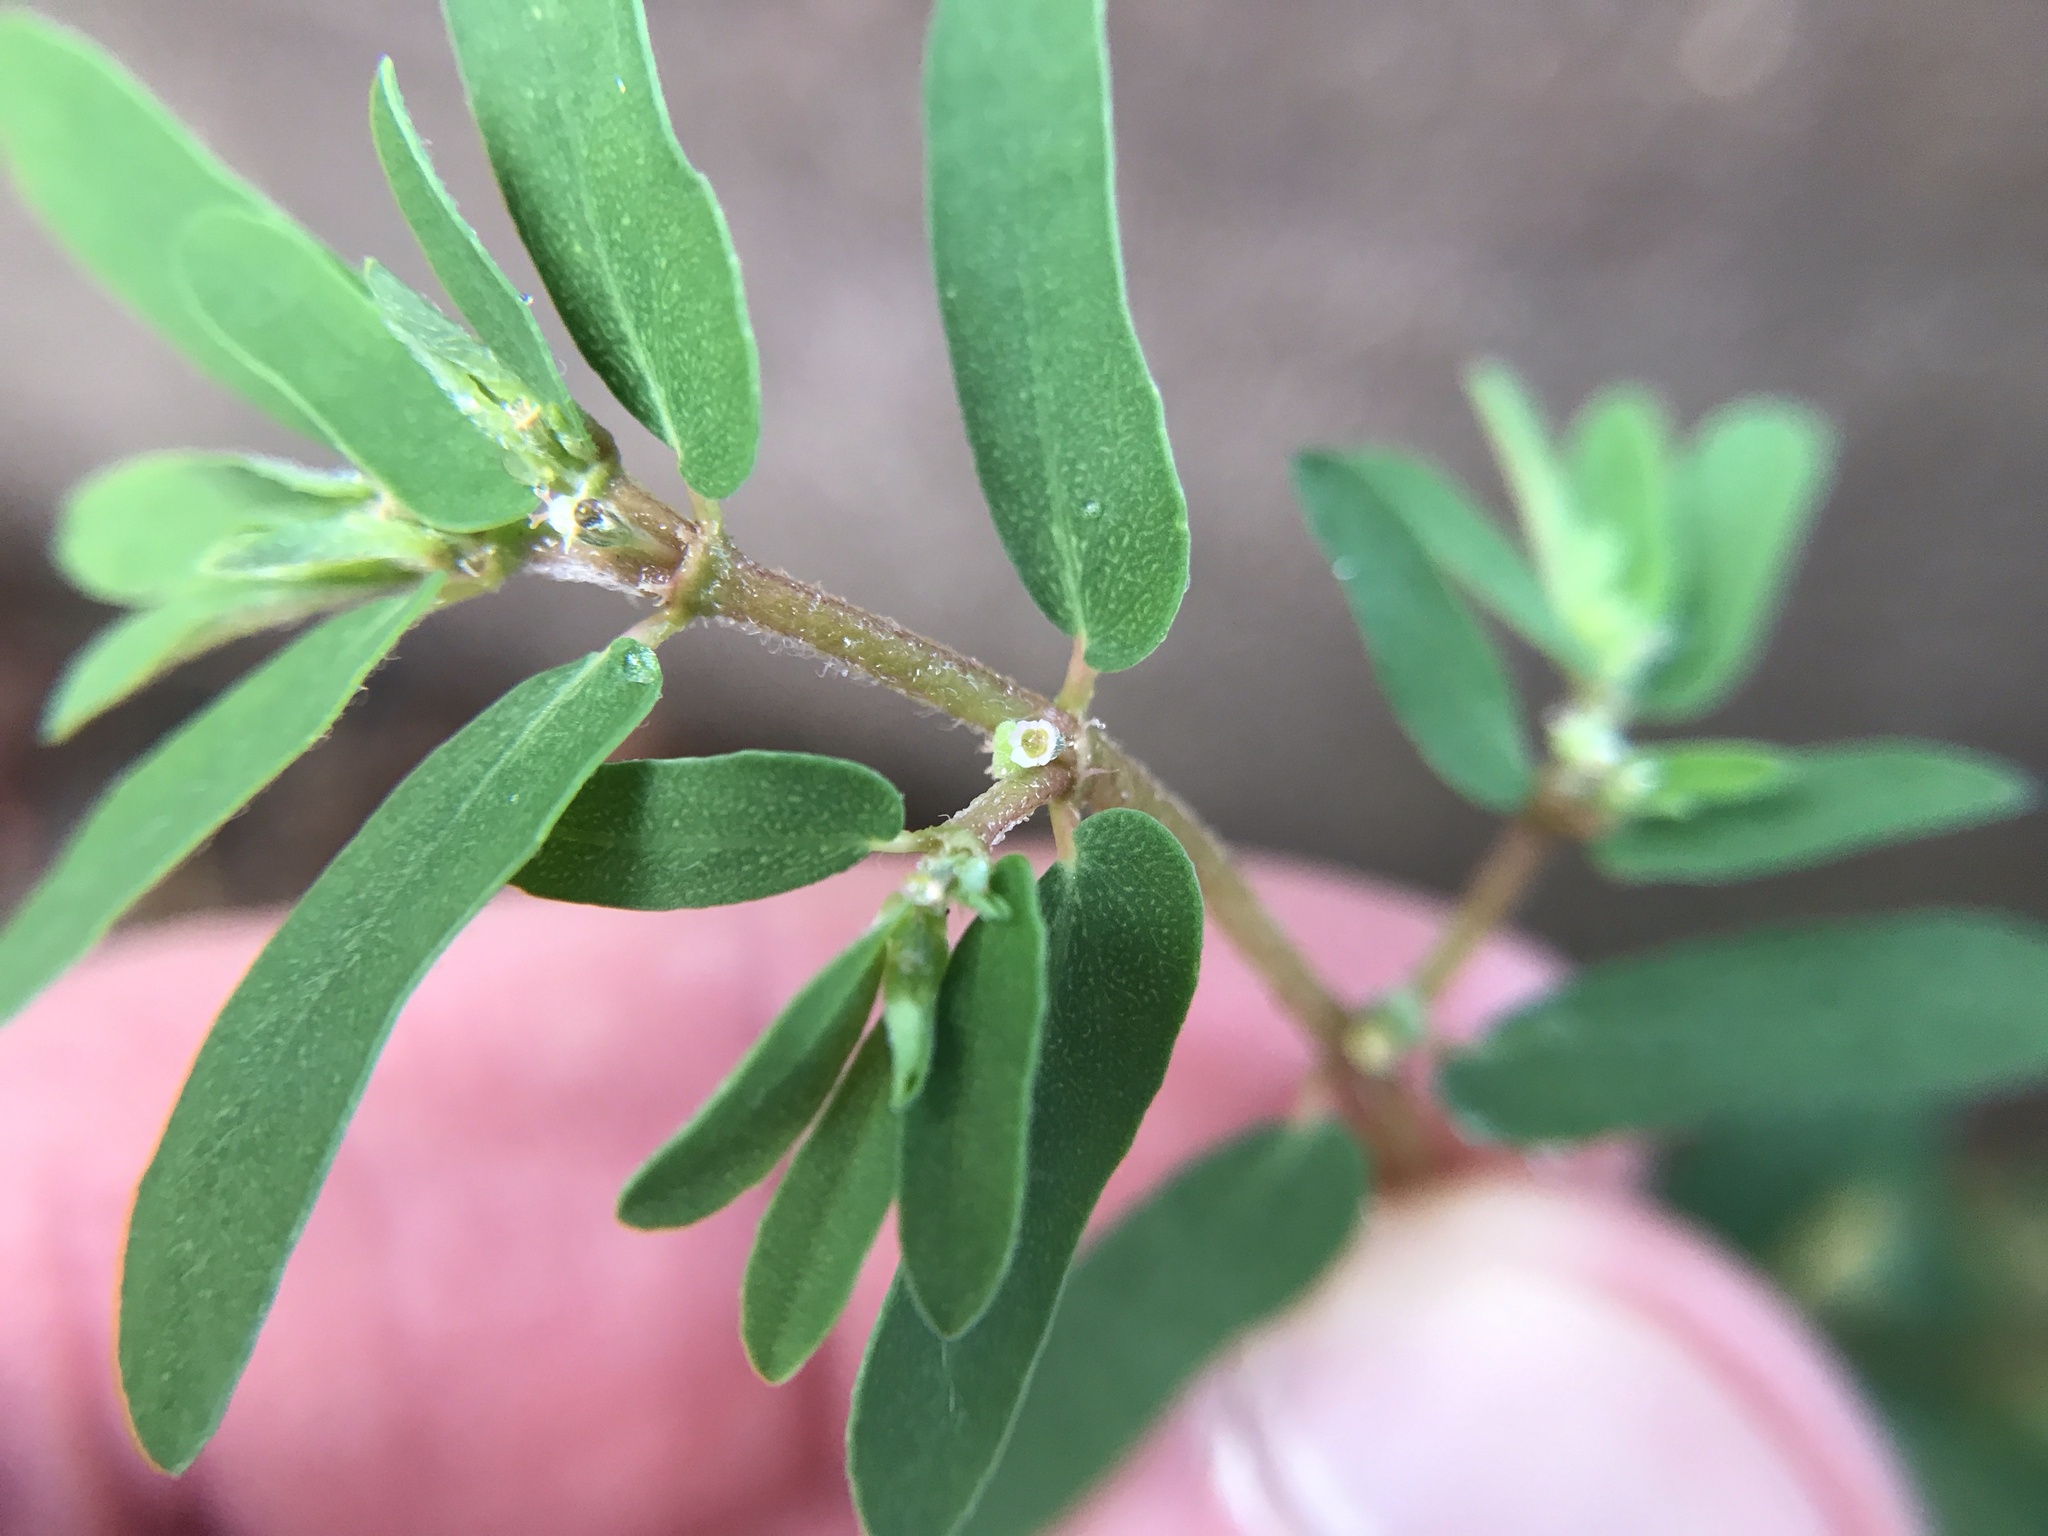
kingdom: Plantae
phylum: Tracheophyta
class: Magnoliopsida
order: Malpighiales
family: Euphorbiaceae
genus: Euphorbia
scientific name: Euphorbia maculata
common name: Spotted spurge
